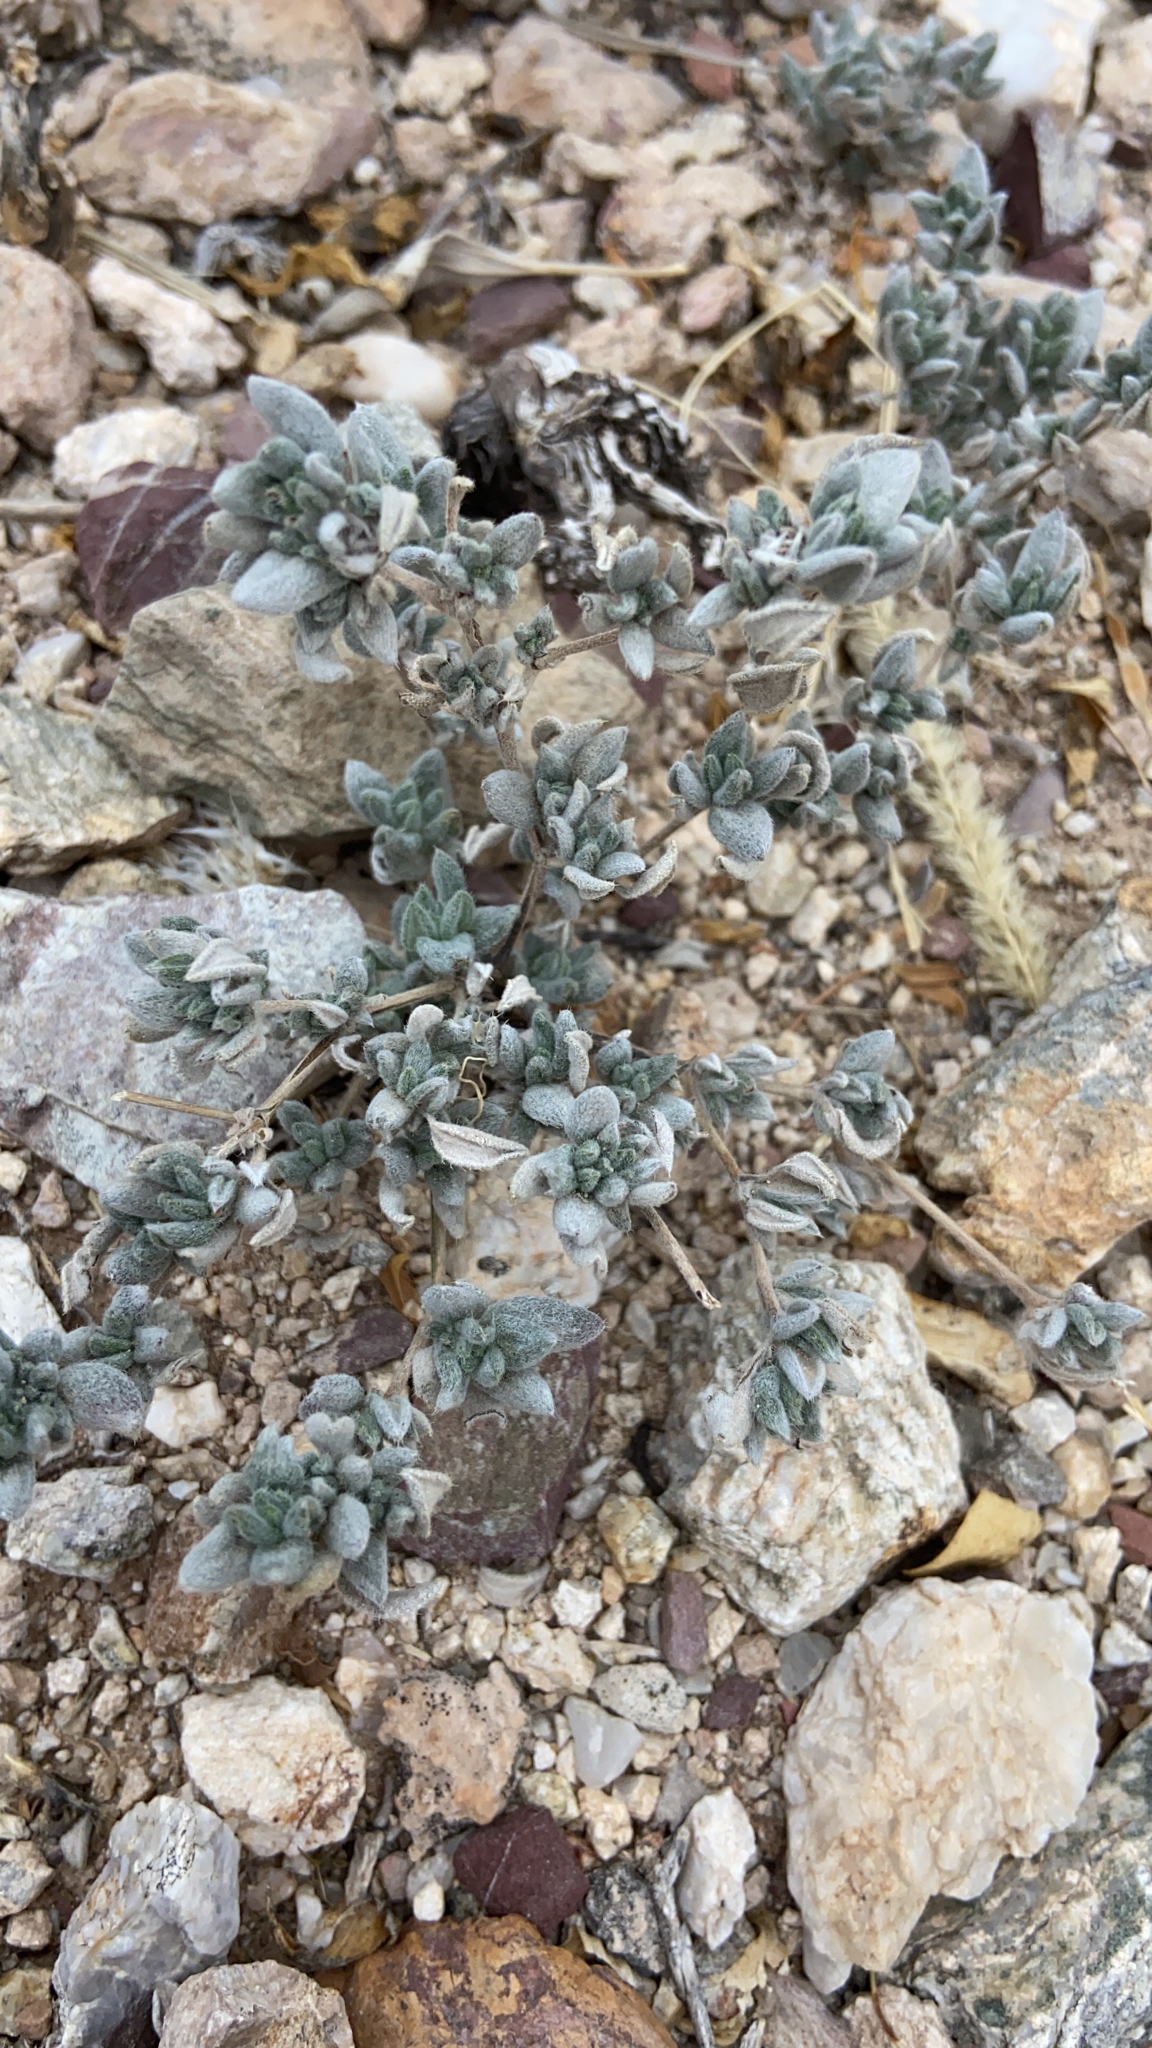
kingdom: Plantae
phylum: Tracheophyta
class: Magnoliopsida
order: Boraginales
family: Ehretiaceae
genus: Tiquilia
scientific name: Tiquilia canescens
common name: Hairy tiquilia
